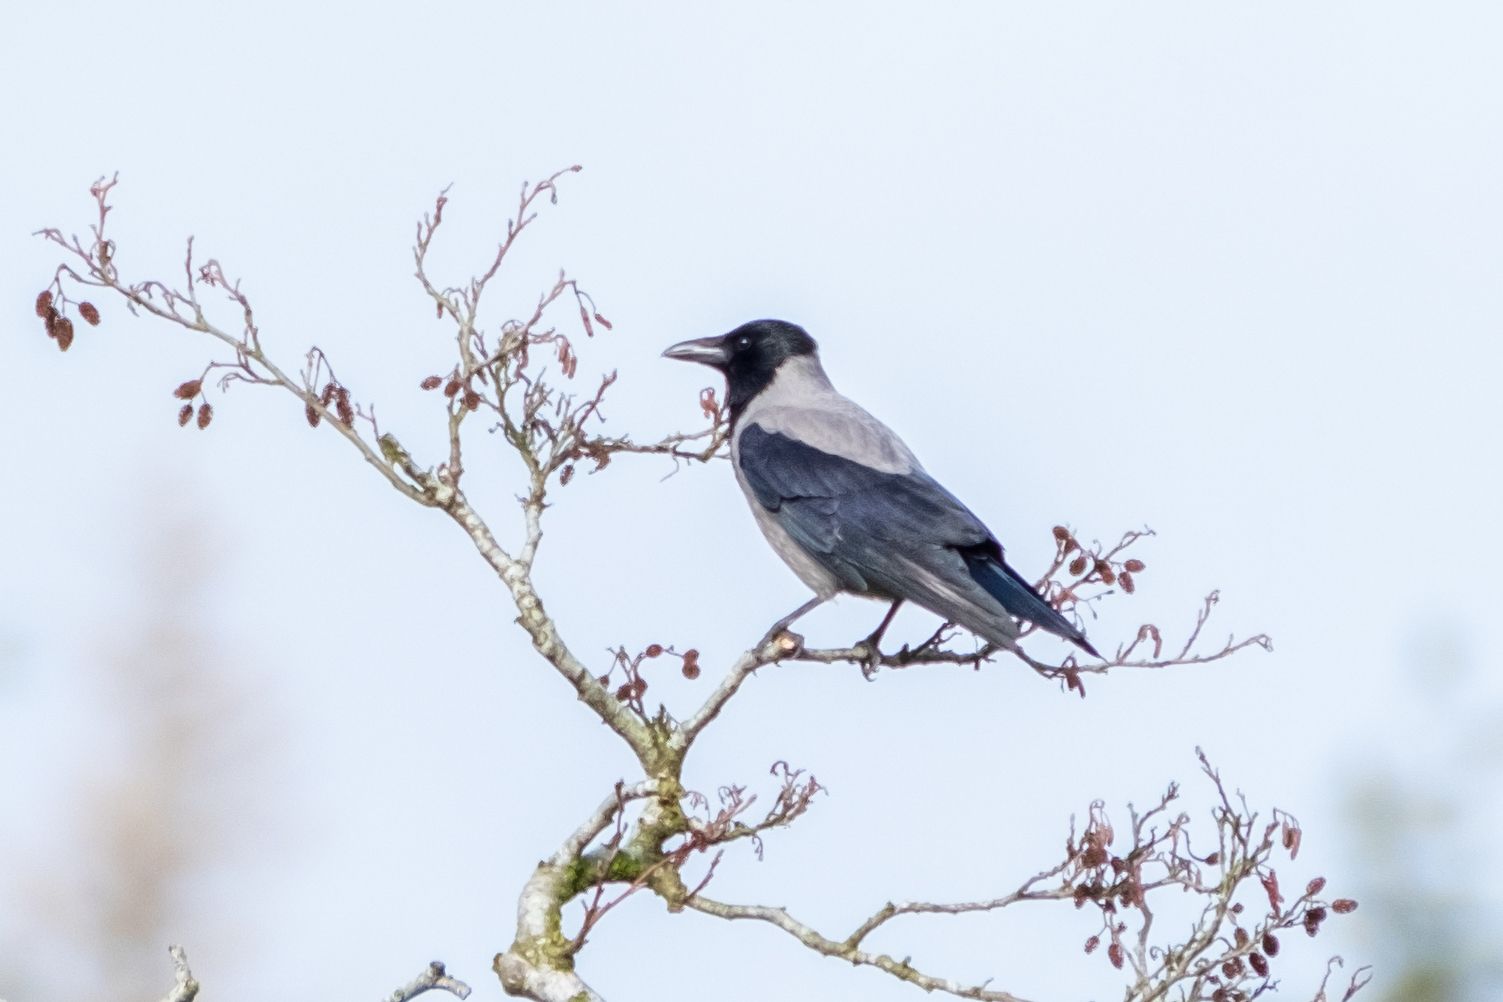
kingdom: Animalia
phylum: Chordata
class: Aves
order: Passeriformes
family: Corvidae
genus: Corvus
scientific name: Corvus cornix
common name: Hooded crow
